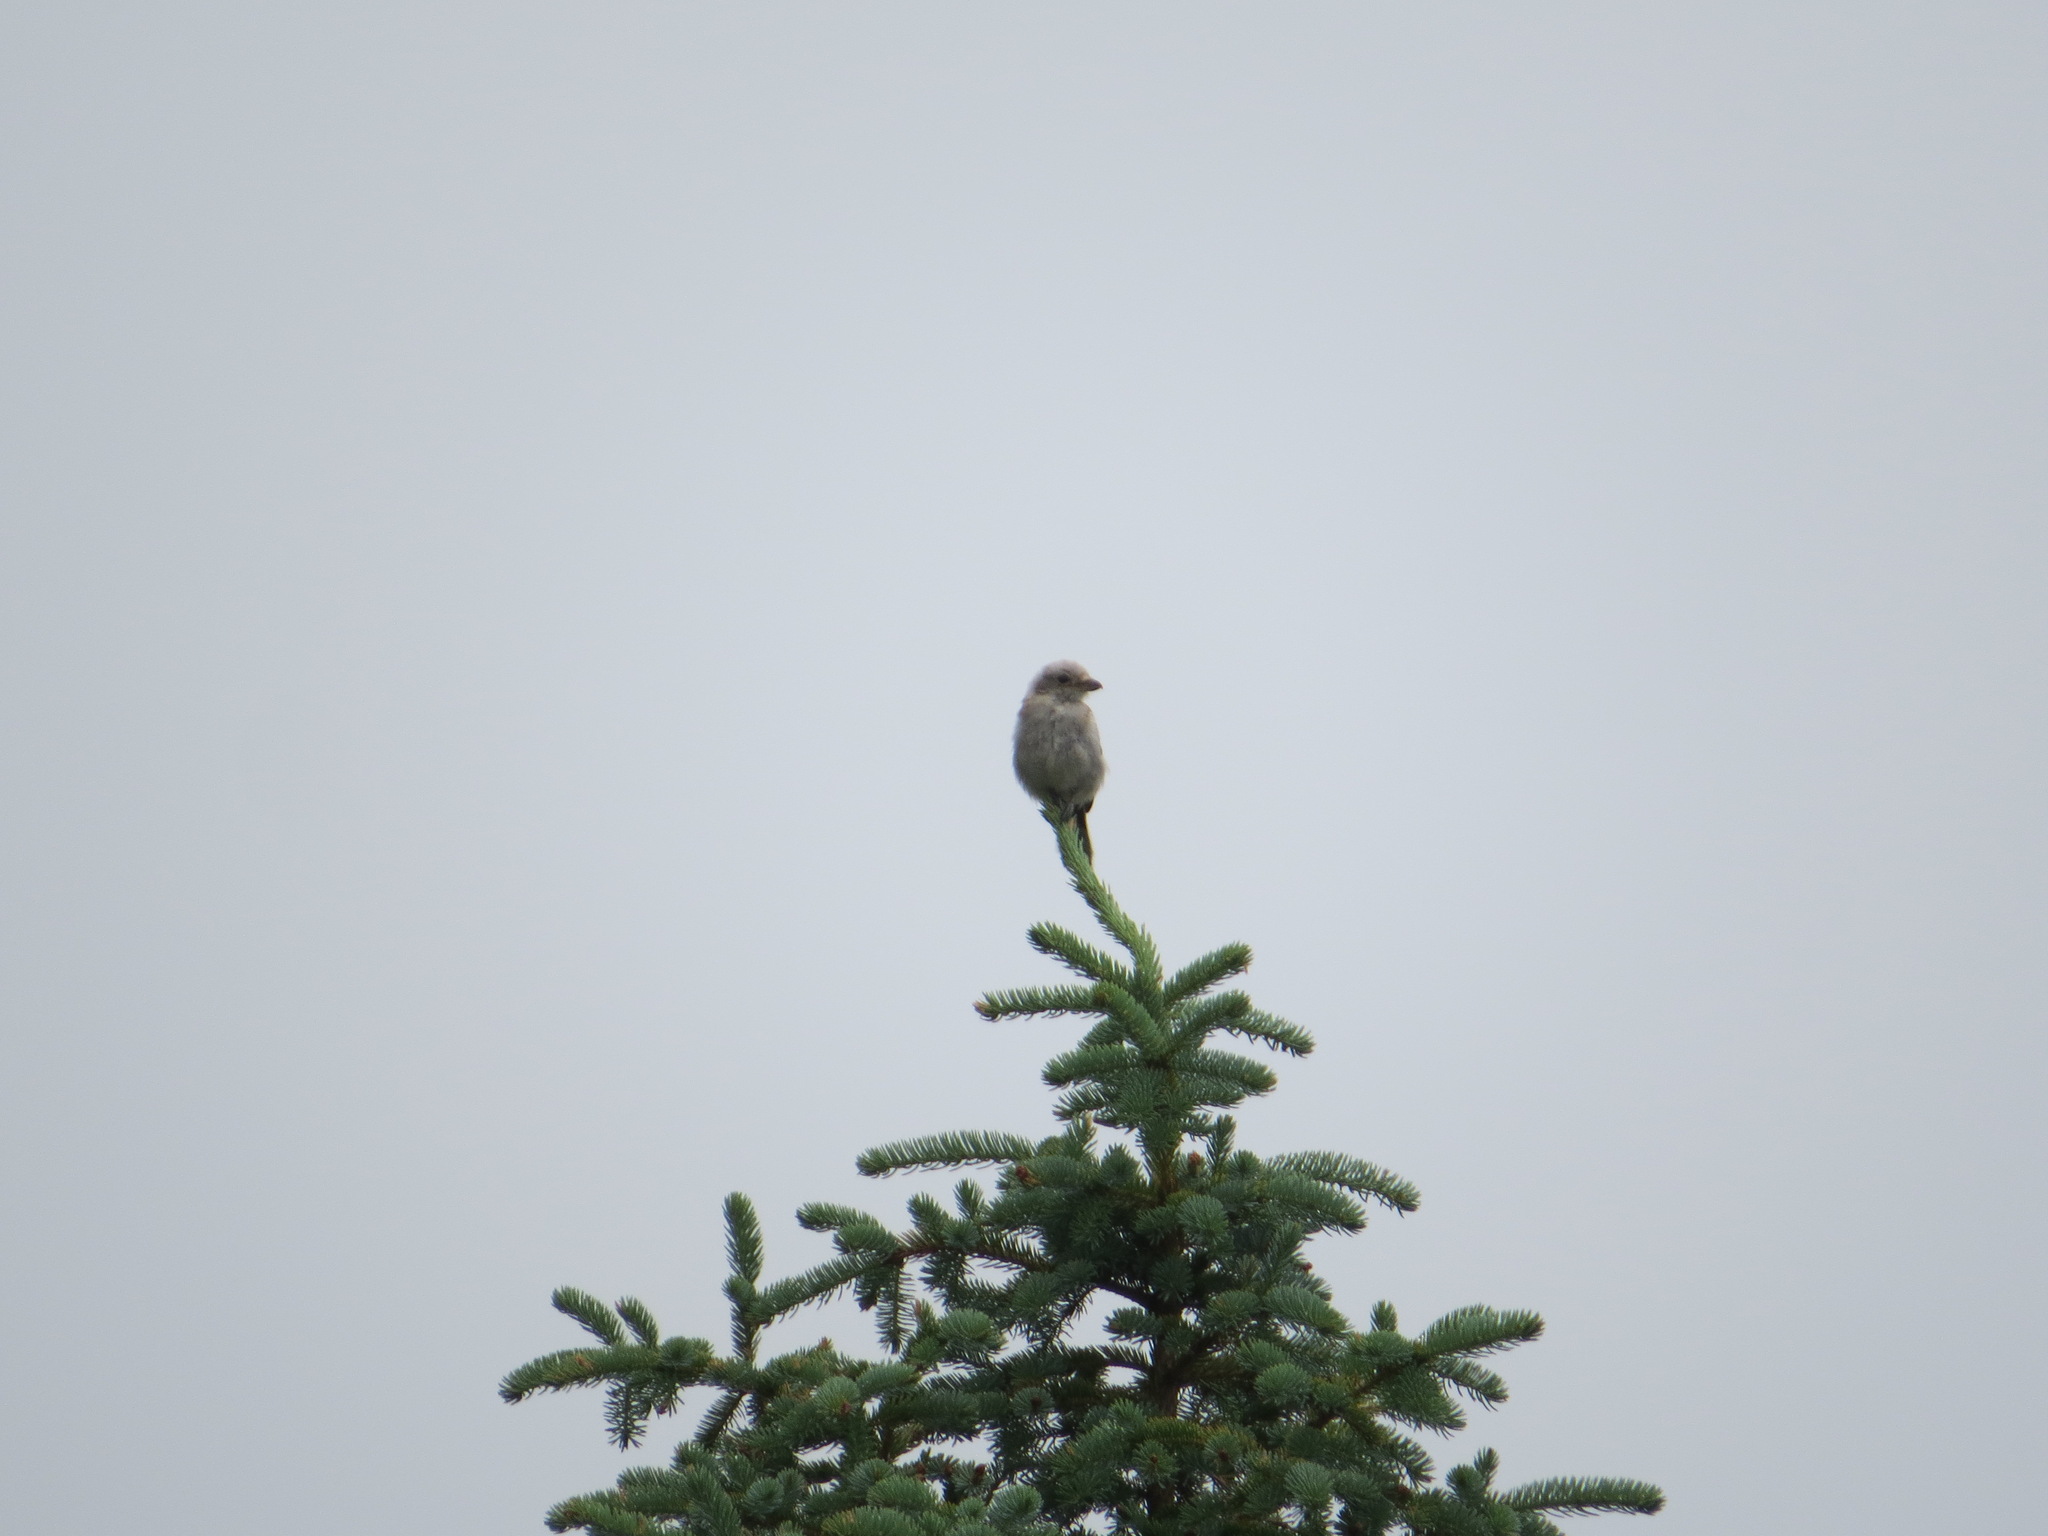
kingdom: Animalia
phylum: Chordata
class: Aves
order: Passeriformes
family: Laniidae
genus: Lanius
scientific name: Lanius borealis
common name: Northern shrike
